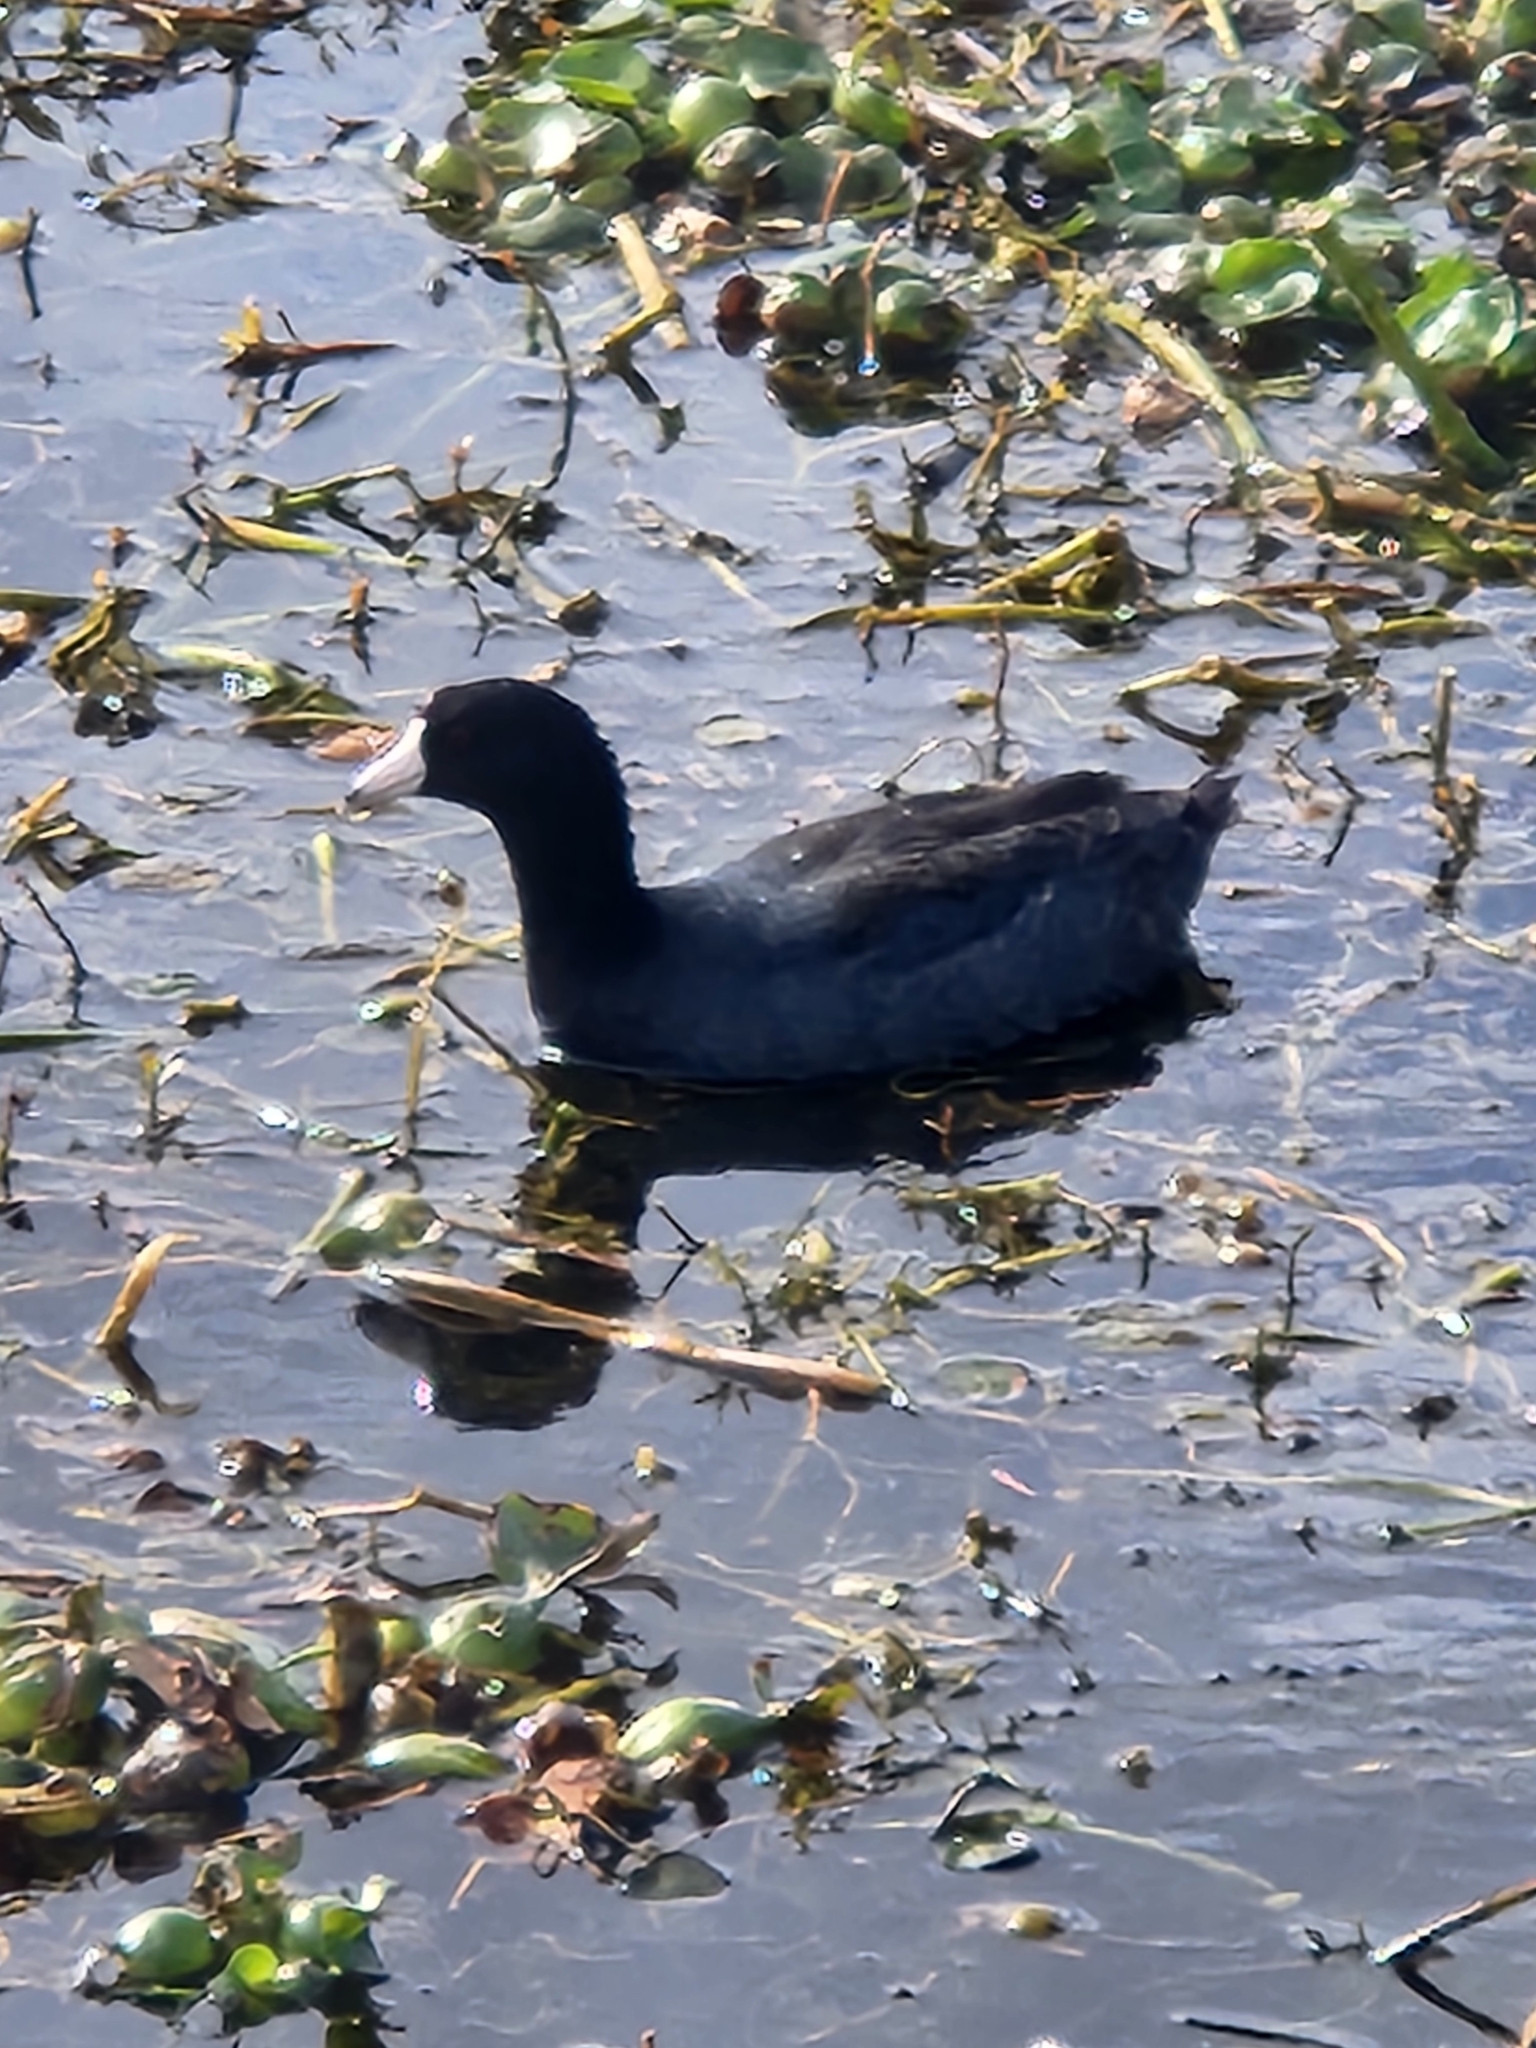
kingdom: Animalia
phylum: Chordata
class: Aves
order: Gruiformes
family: Rallidae
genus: Fulica
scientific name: Fulica americana
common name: American coot
